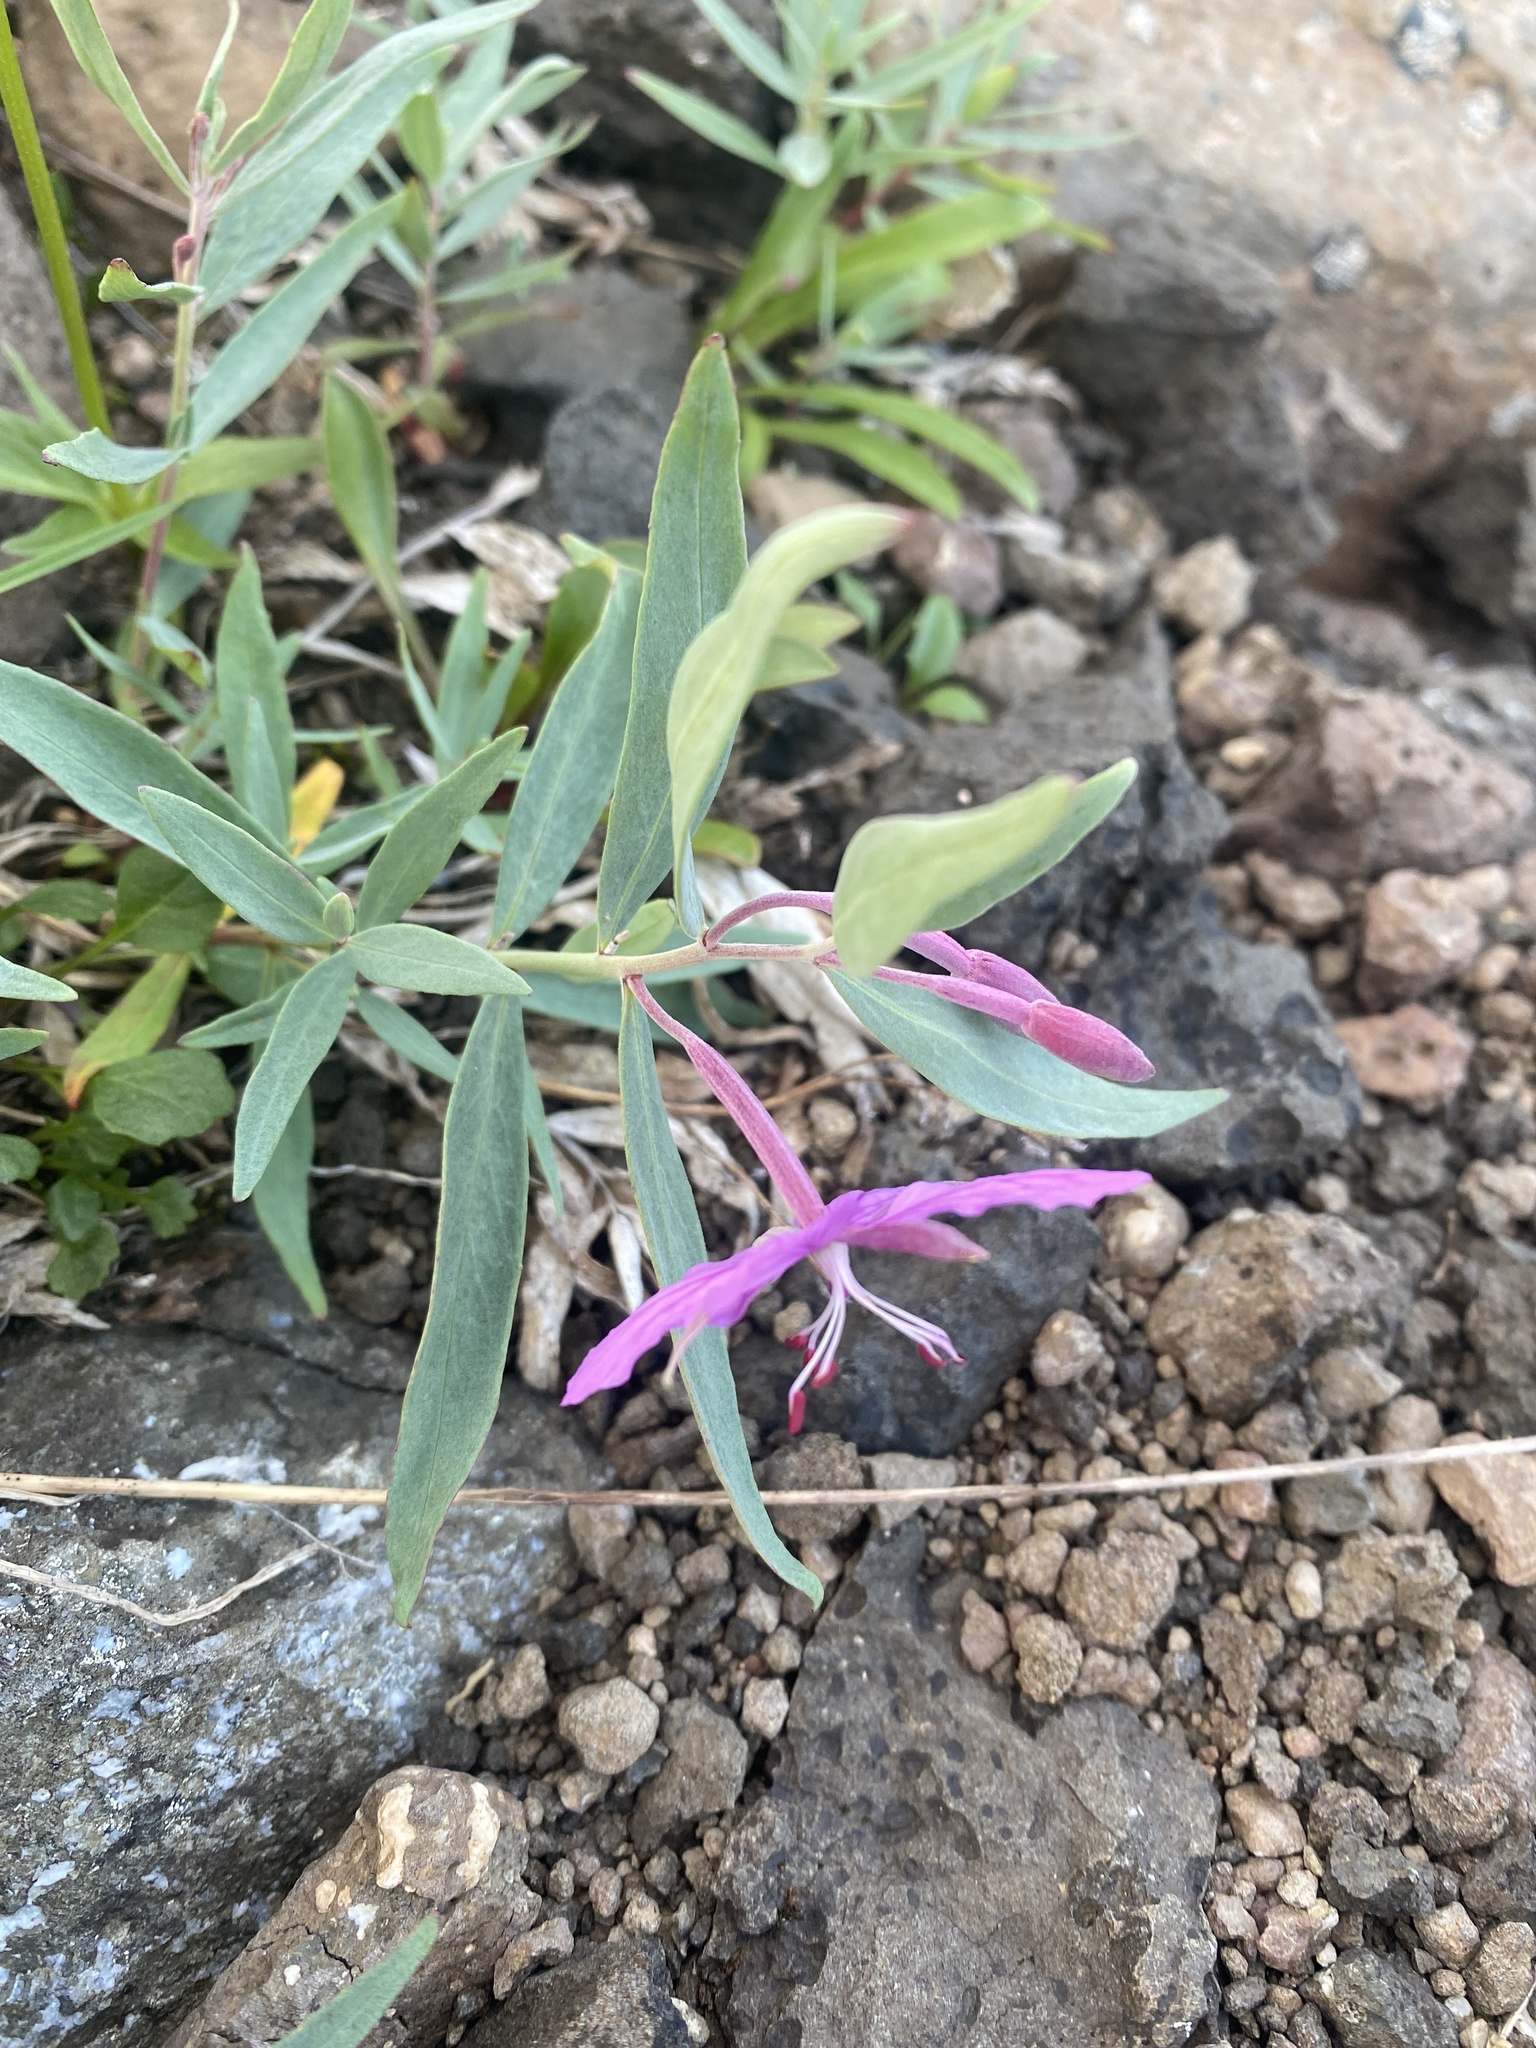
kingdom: Plantae
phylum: Tracheophyta
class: Magnoliopsida
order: Myrtales
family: Onagraceae
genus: Chamaenerion
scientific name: Chamaenerion latifolium
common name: Dwarf fireweed
